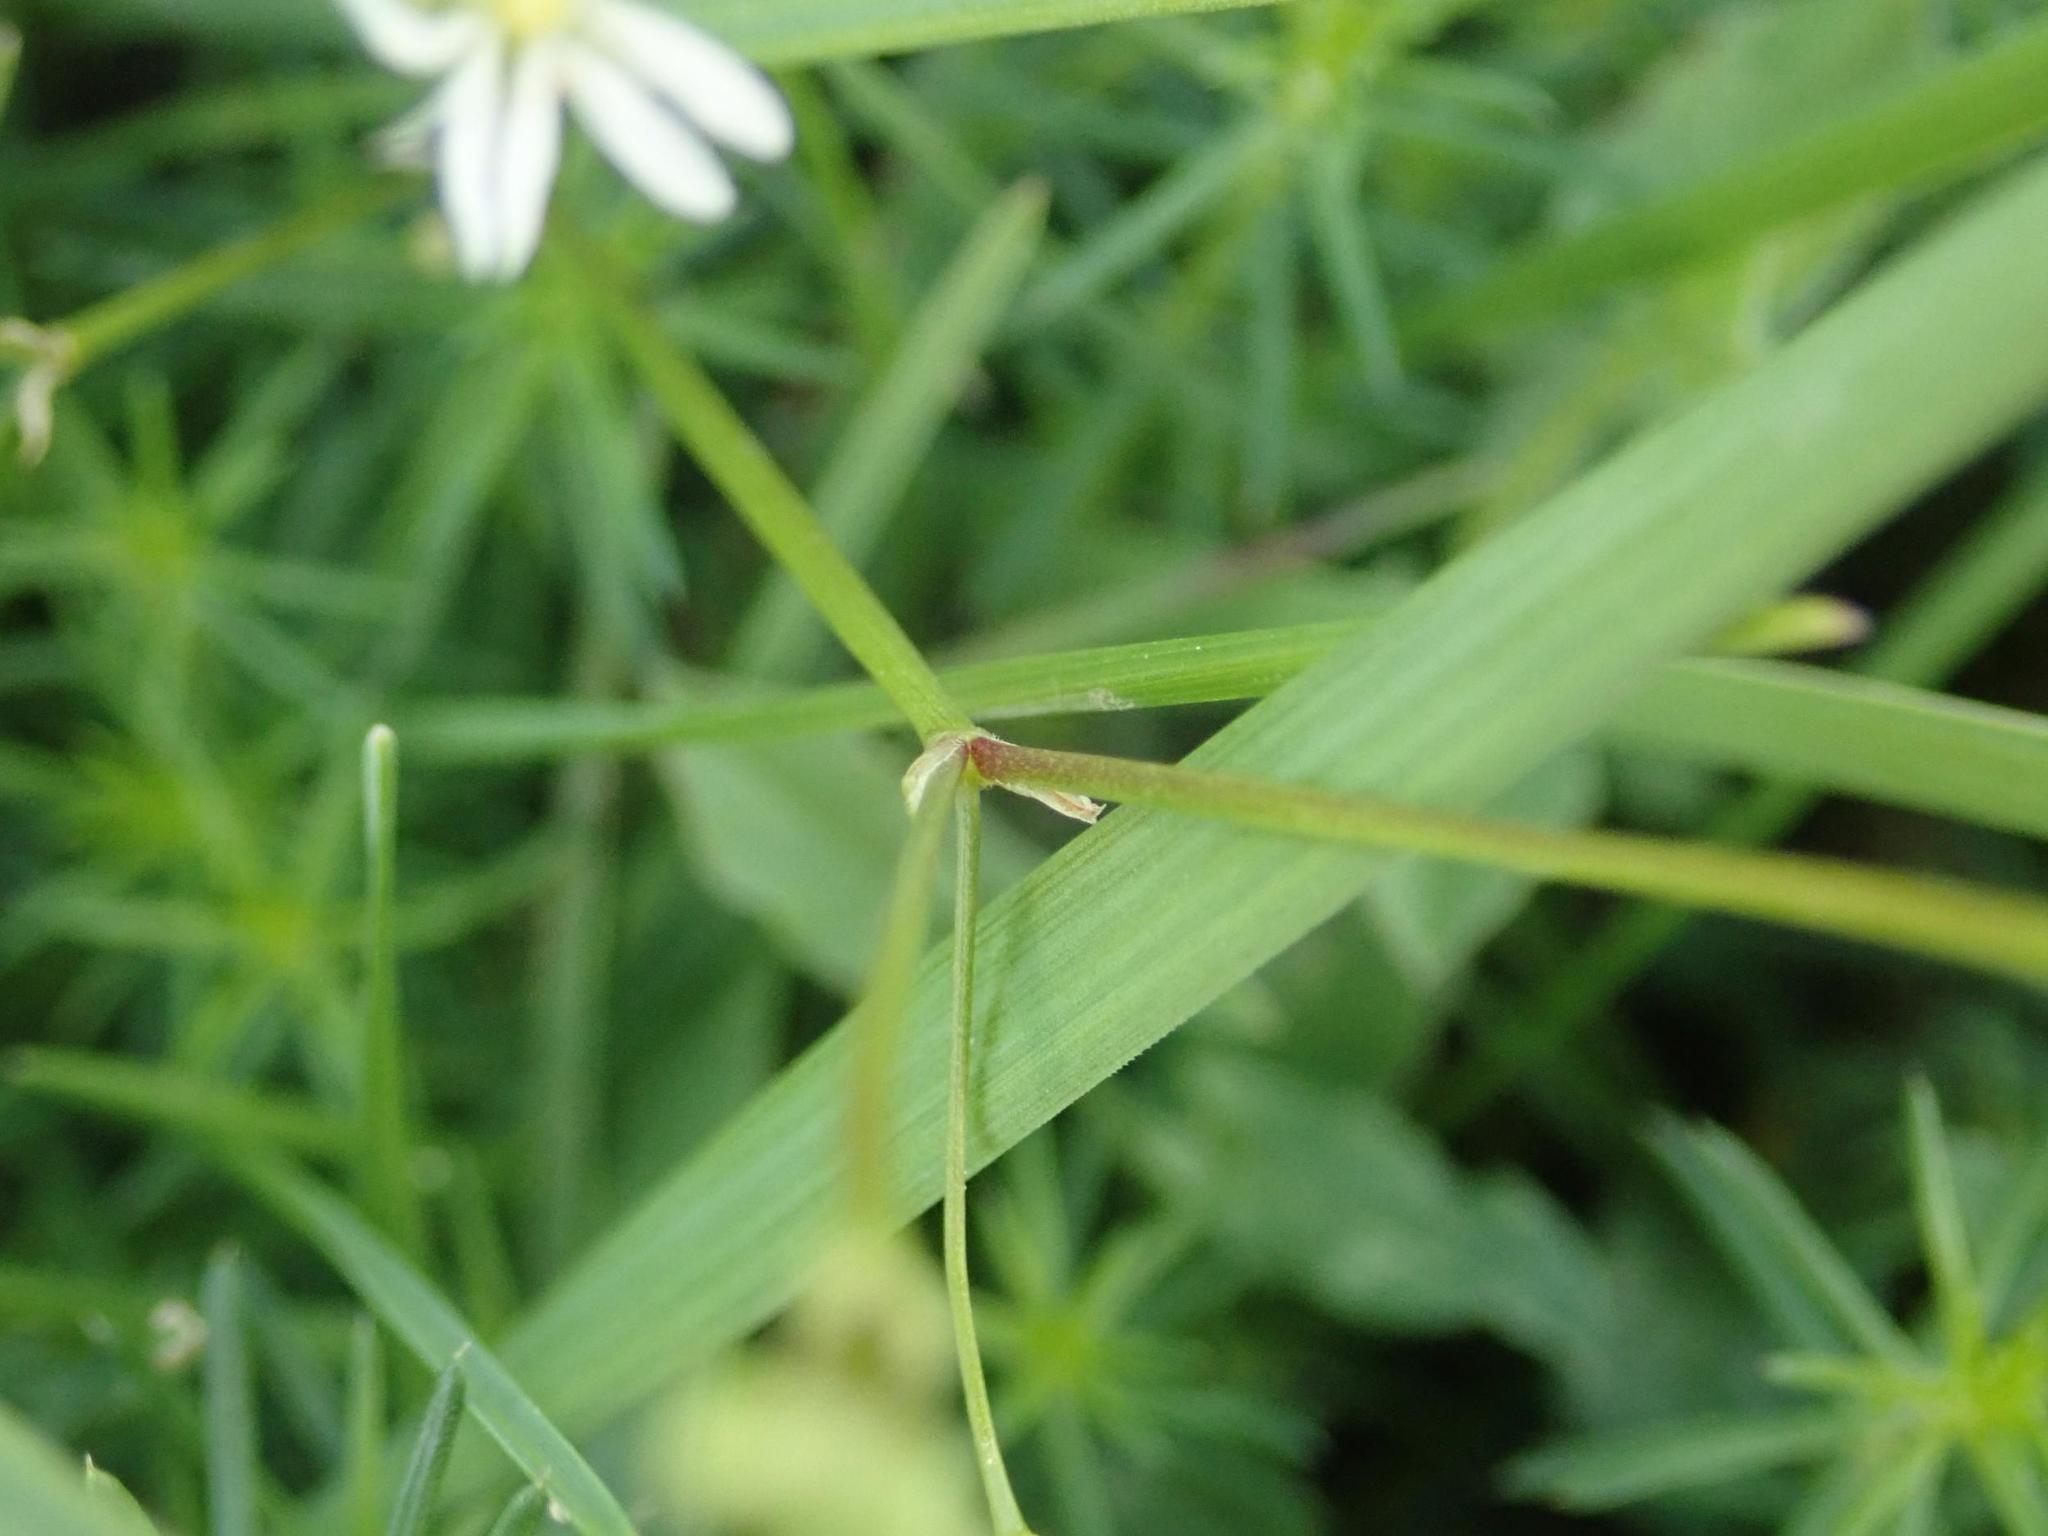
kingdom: Plantae
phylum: Tracheophyta
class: Magnoliopsida
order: Caryophyllales
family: Caryophyllaceae
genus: Stellaria
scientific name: Stellaria graminea
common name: Grass-like starwort
